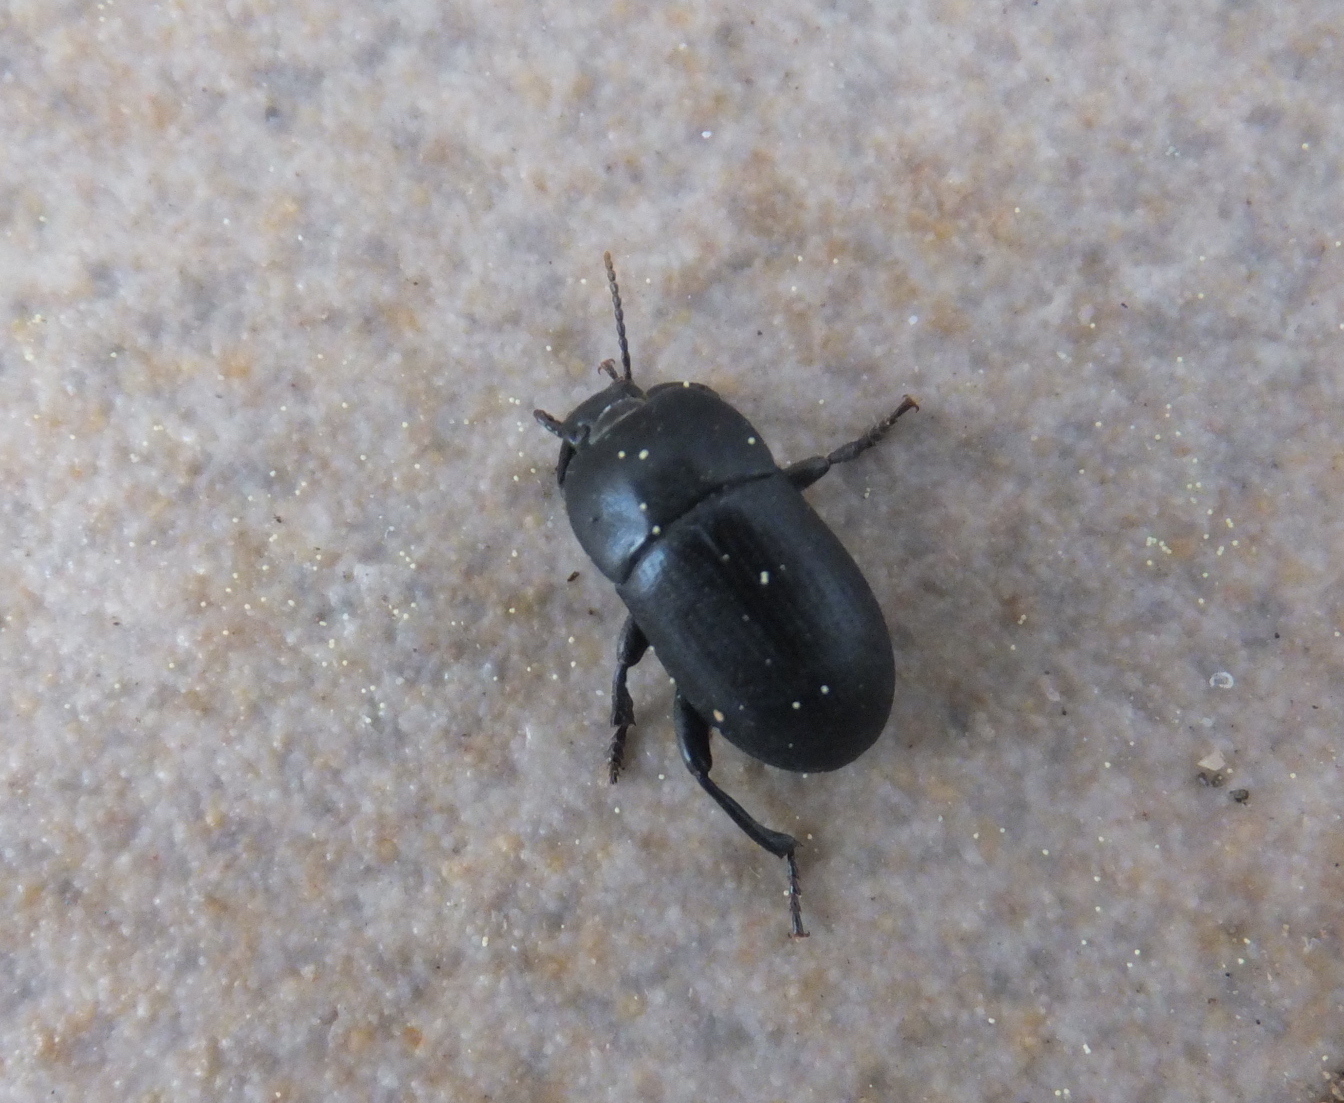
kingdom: Animalia
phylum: Arthropoda
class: Insecta
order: Coleoptera
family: Tenebrionidae
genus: Pedinus
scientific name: Pedinus meridianus
